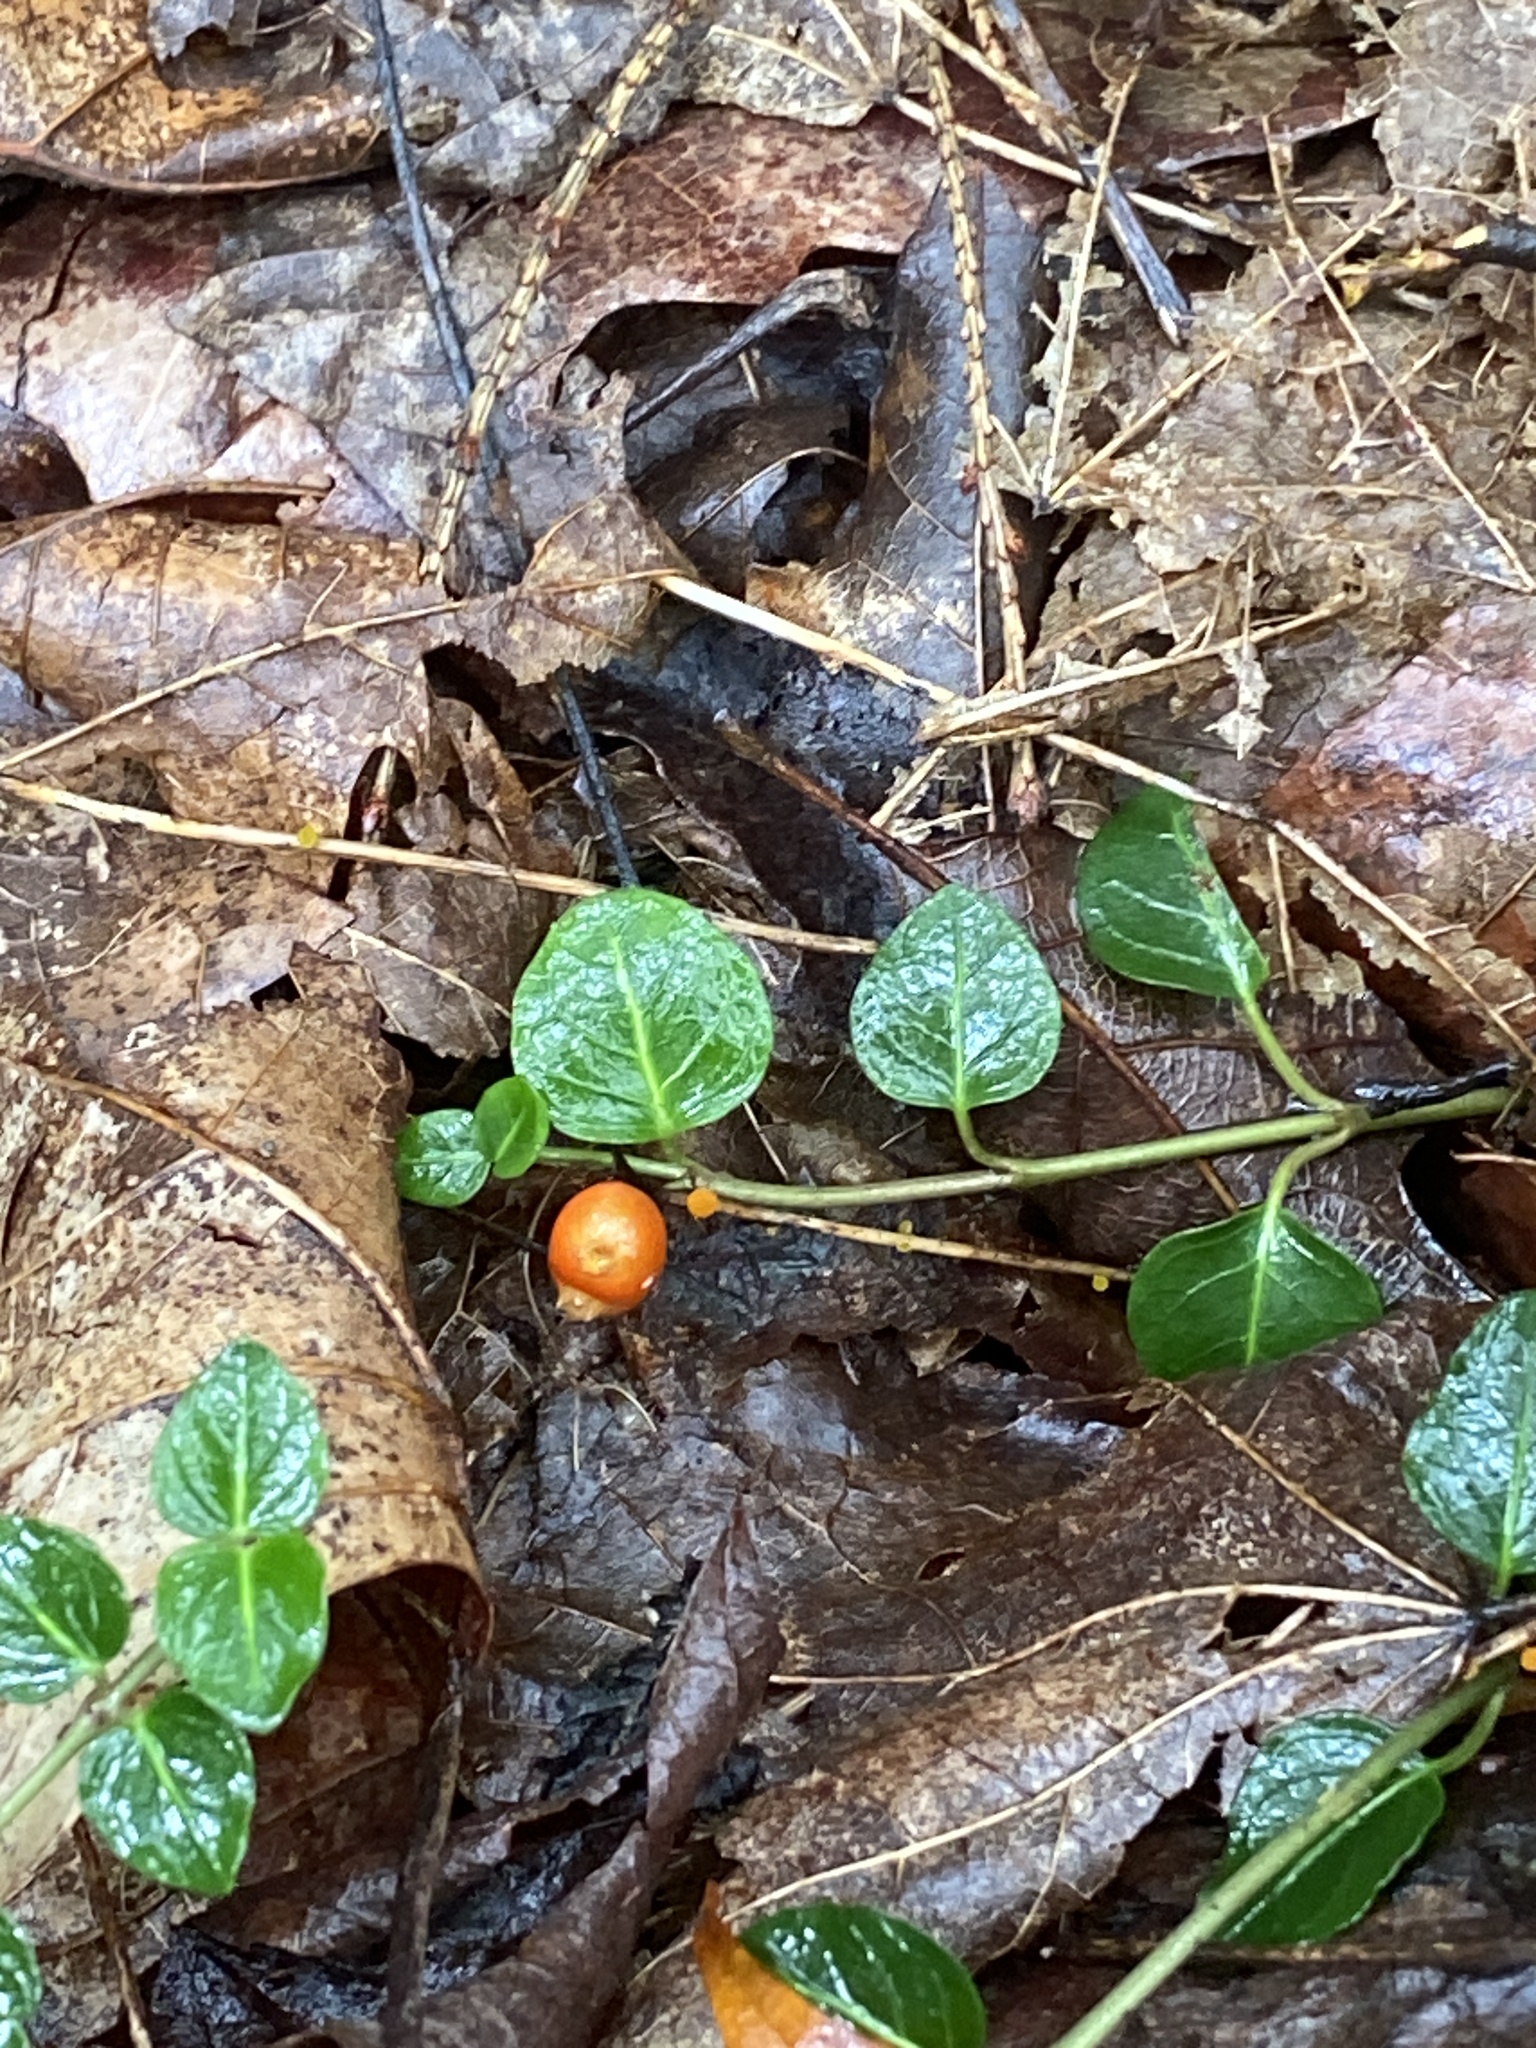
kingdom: Plantae
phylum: Tracheophyta
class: Magnoliopsida
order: Gentianales
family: Rubiaceae
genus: Mitchella
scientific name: Mitchella repens
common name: Partridge-berry
